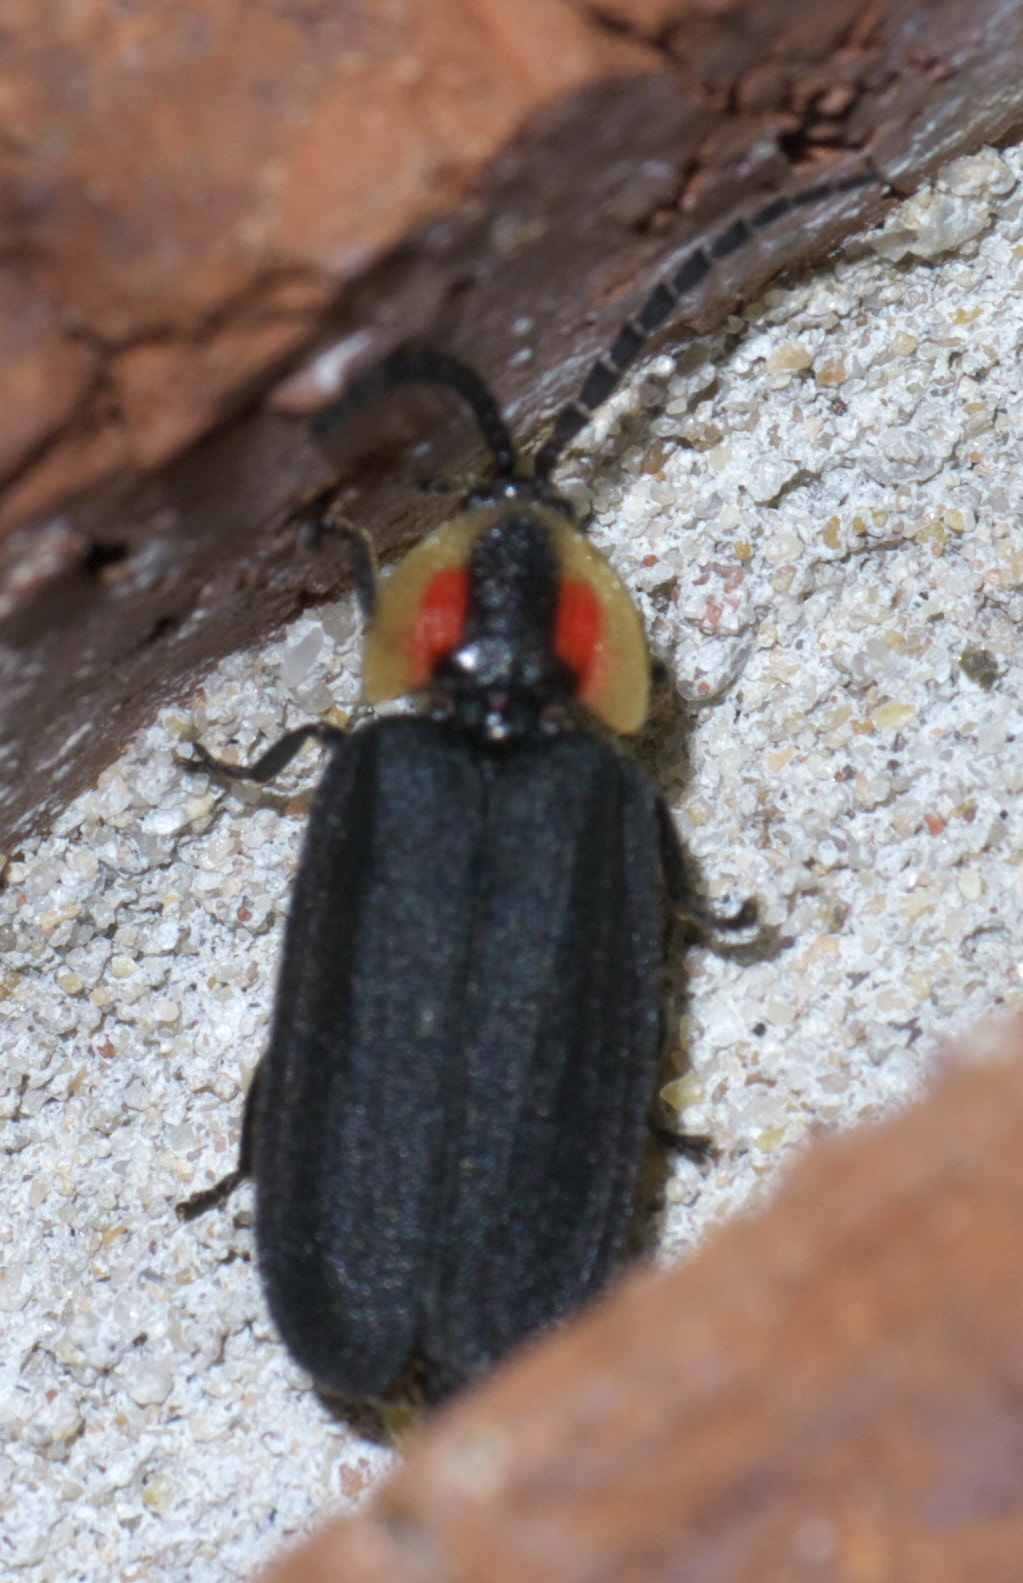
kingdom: Animalia
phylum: Arthropoda
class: Insecta
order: Coleoptera
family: Lampyridae
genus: Lucidota
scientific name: Lucidota atra
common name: Black firefly
